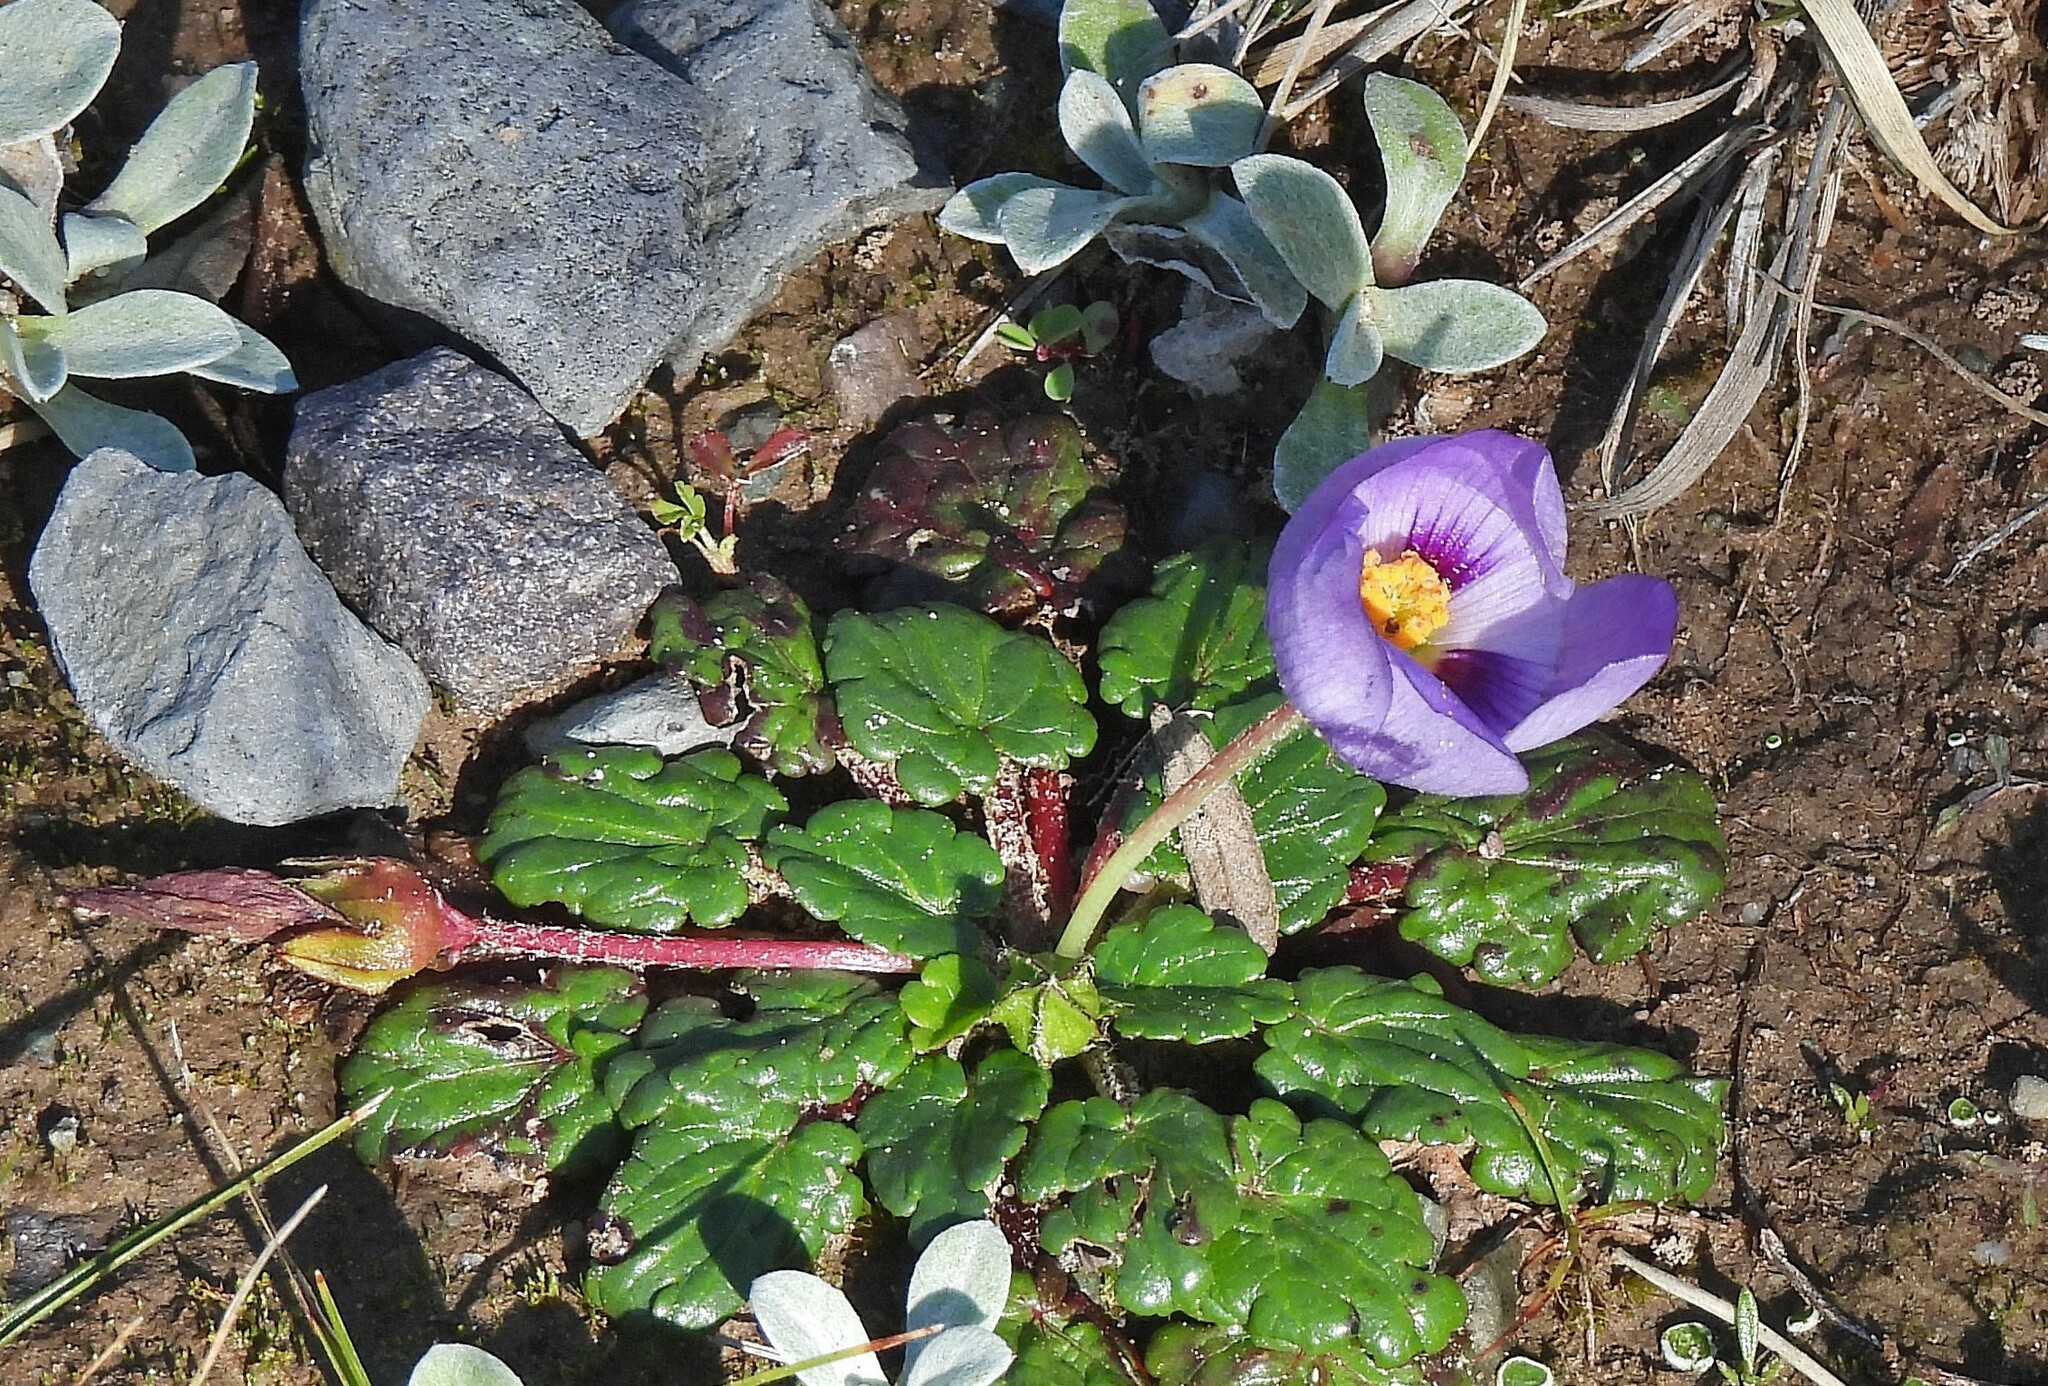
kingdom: Plantae
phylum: Tracheophyta
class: Magnoliopsida
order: Malvales
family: Malvaceae
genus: Acaulimalva
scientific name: Acaulimalva nubigena
